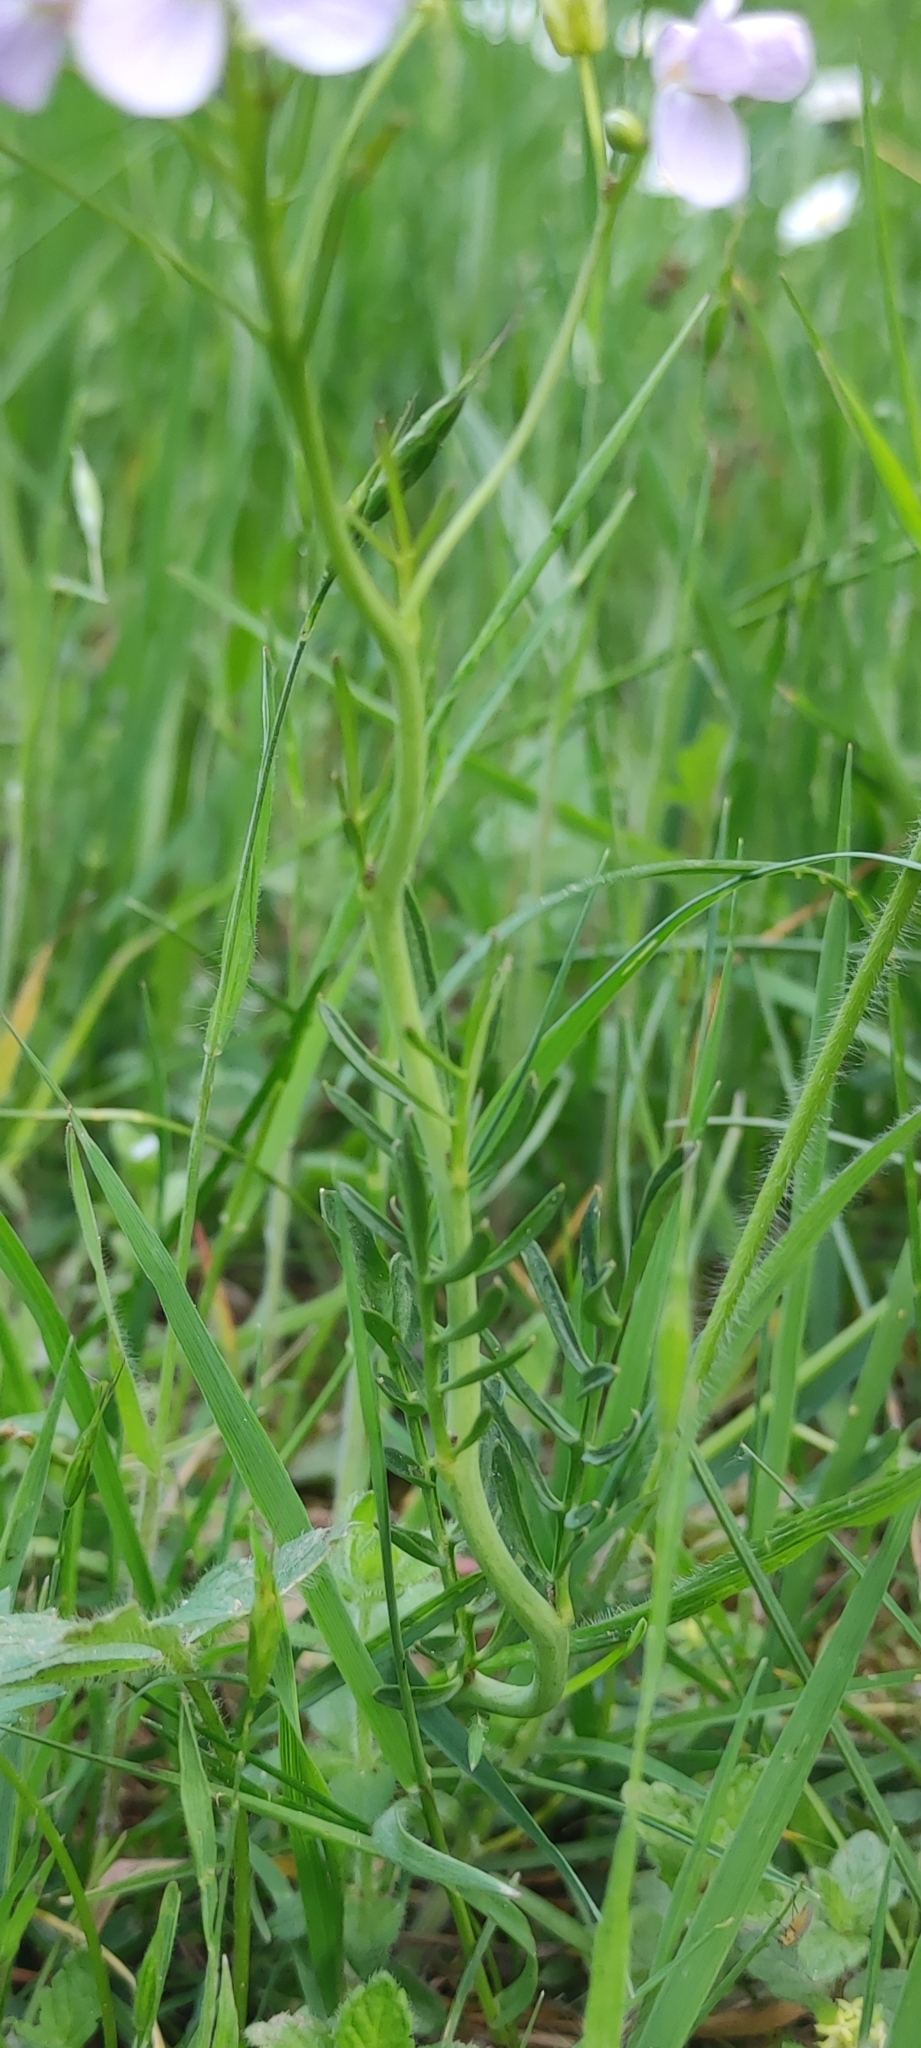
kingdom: Plantae
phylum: Tracheophyta
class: Magnoliopsida
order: Brassicales
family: Brassicaceae
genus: Cardamine
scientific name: Cardamine pratensis
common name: Cuckoo flower
